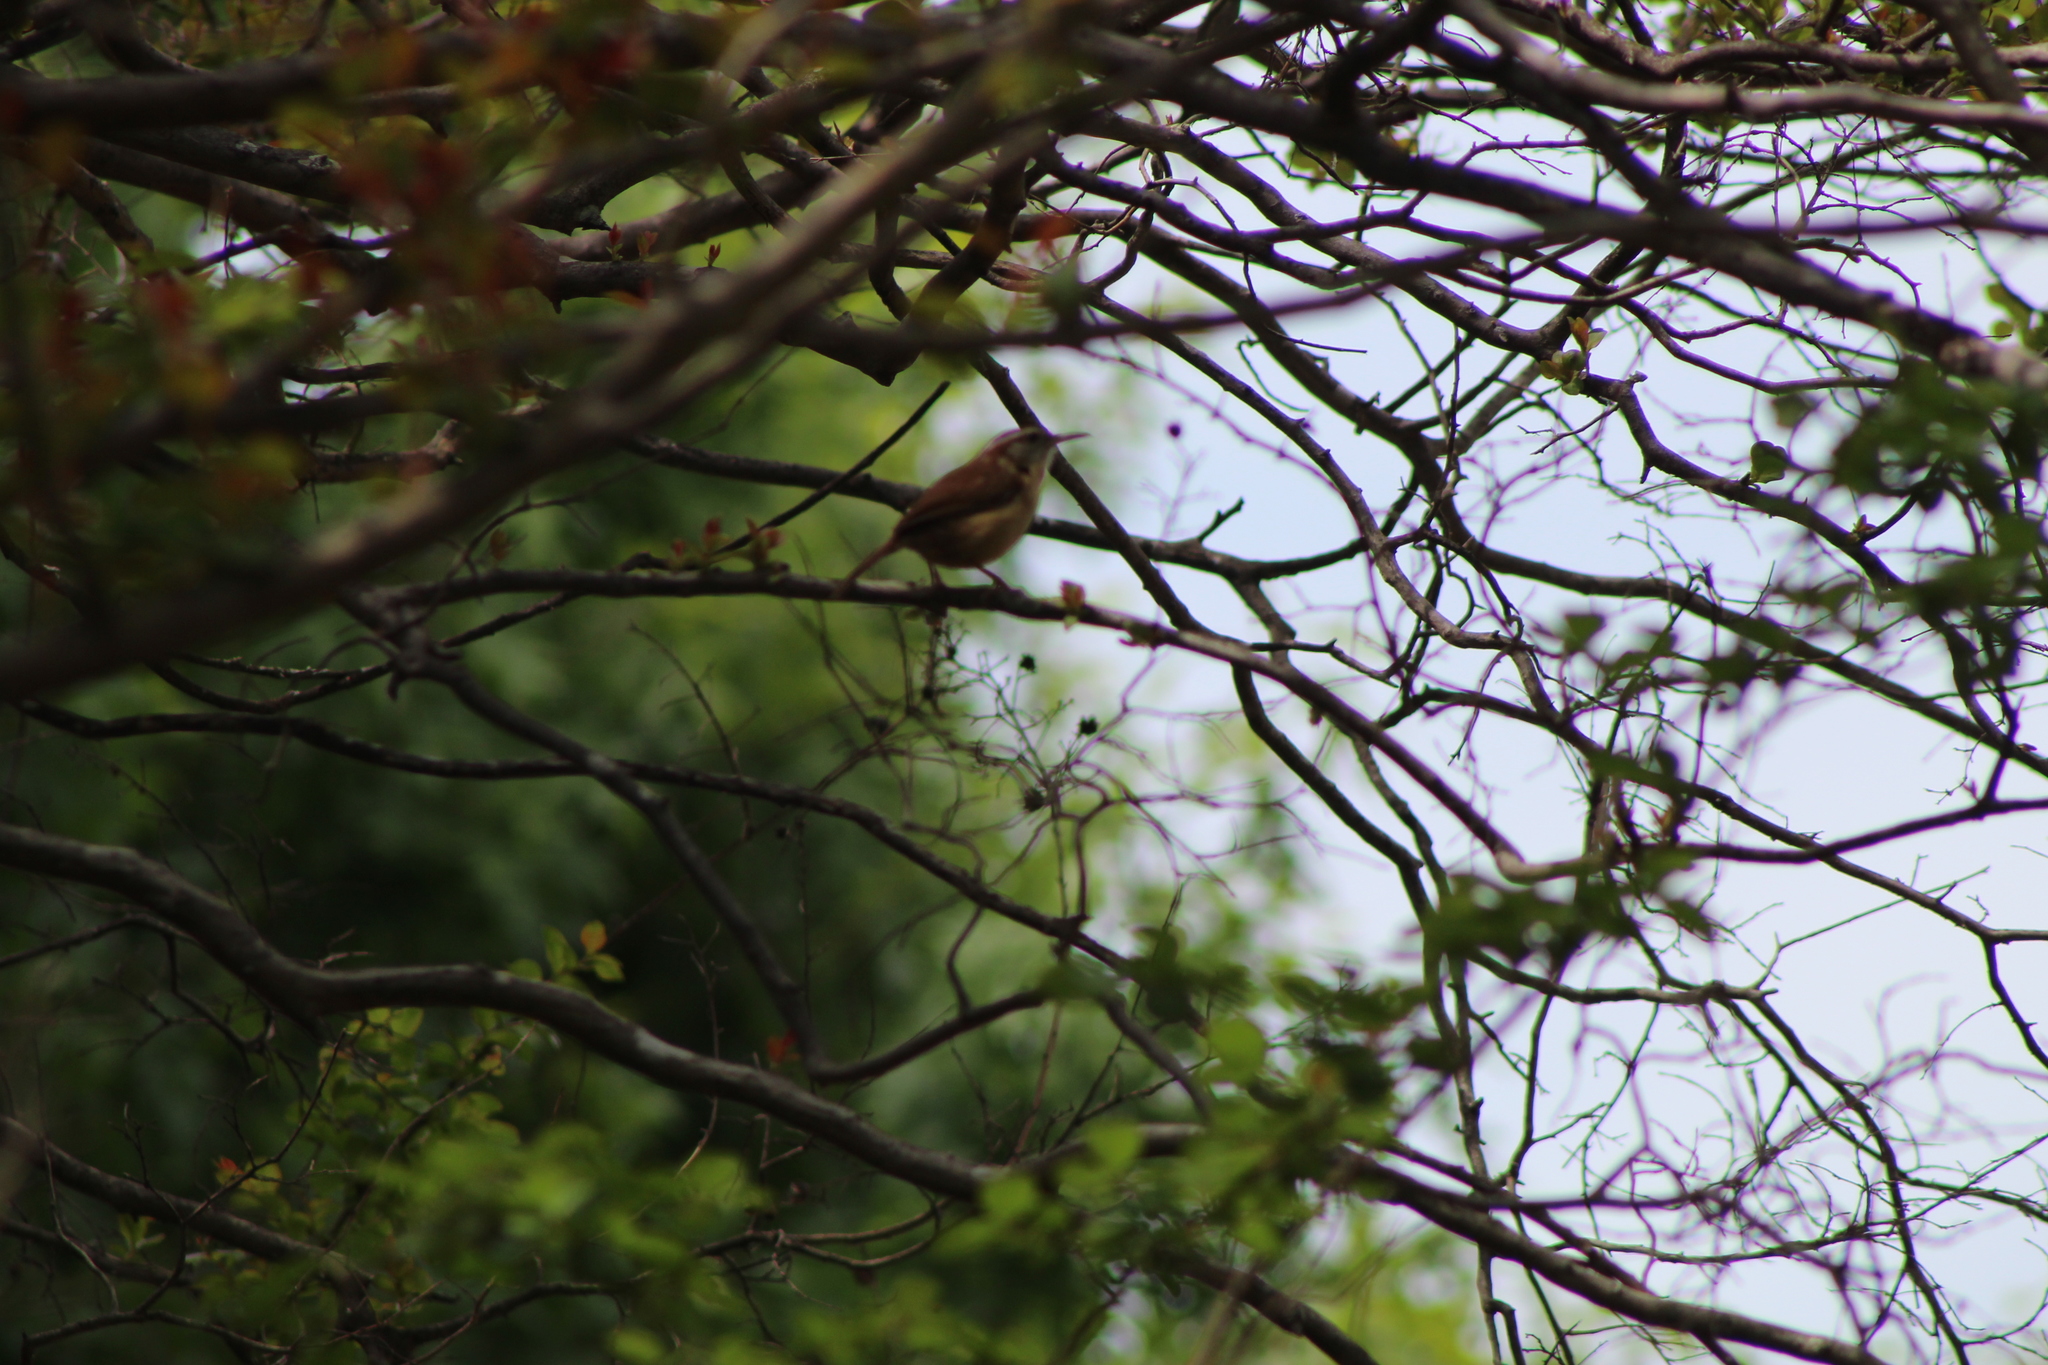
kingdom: Animalia
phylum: Chordata
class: Aves
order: Passeriformes
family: Troglodytidae
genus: Thryothorus
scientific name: Thryothorus ludovicianus
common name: Carolina wren
